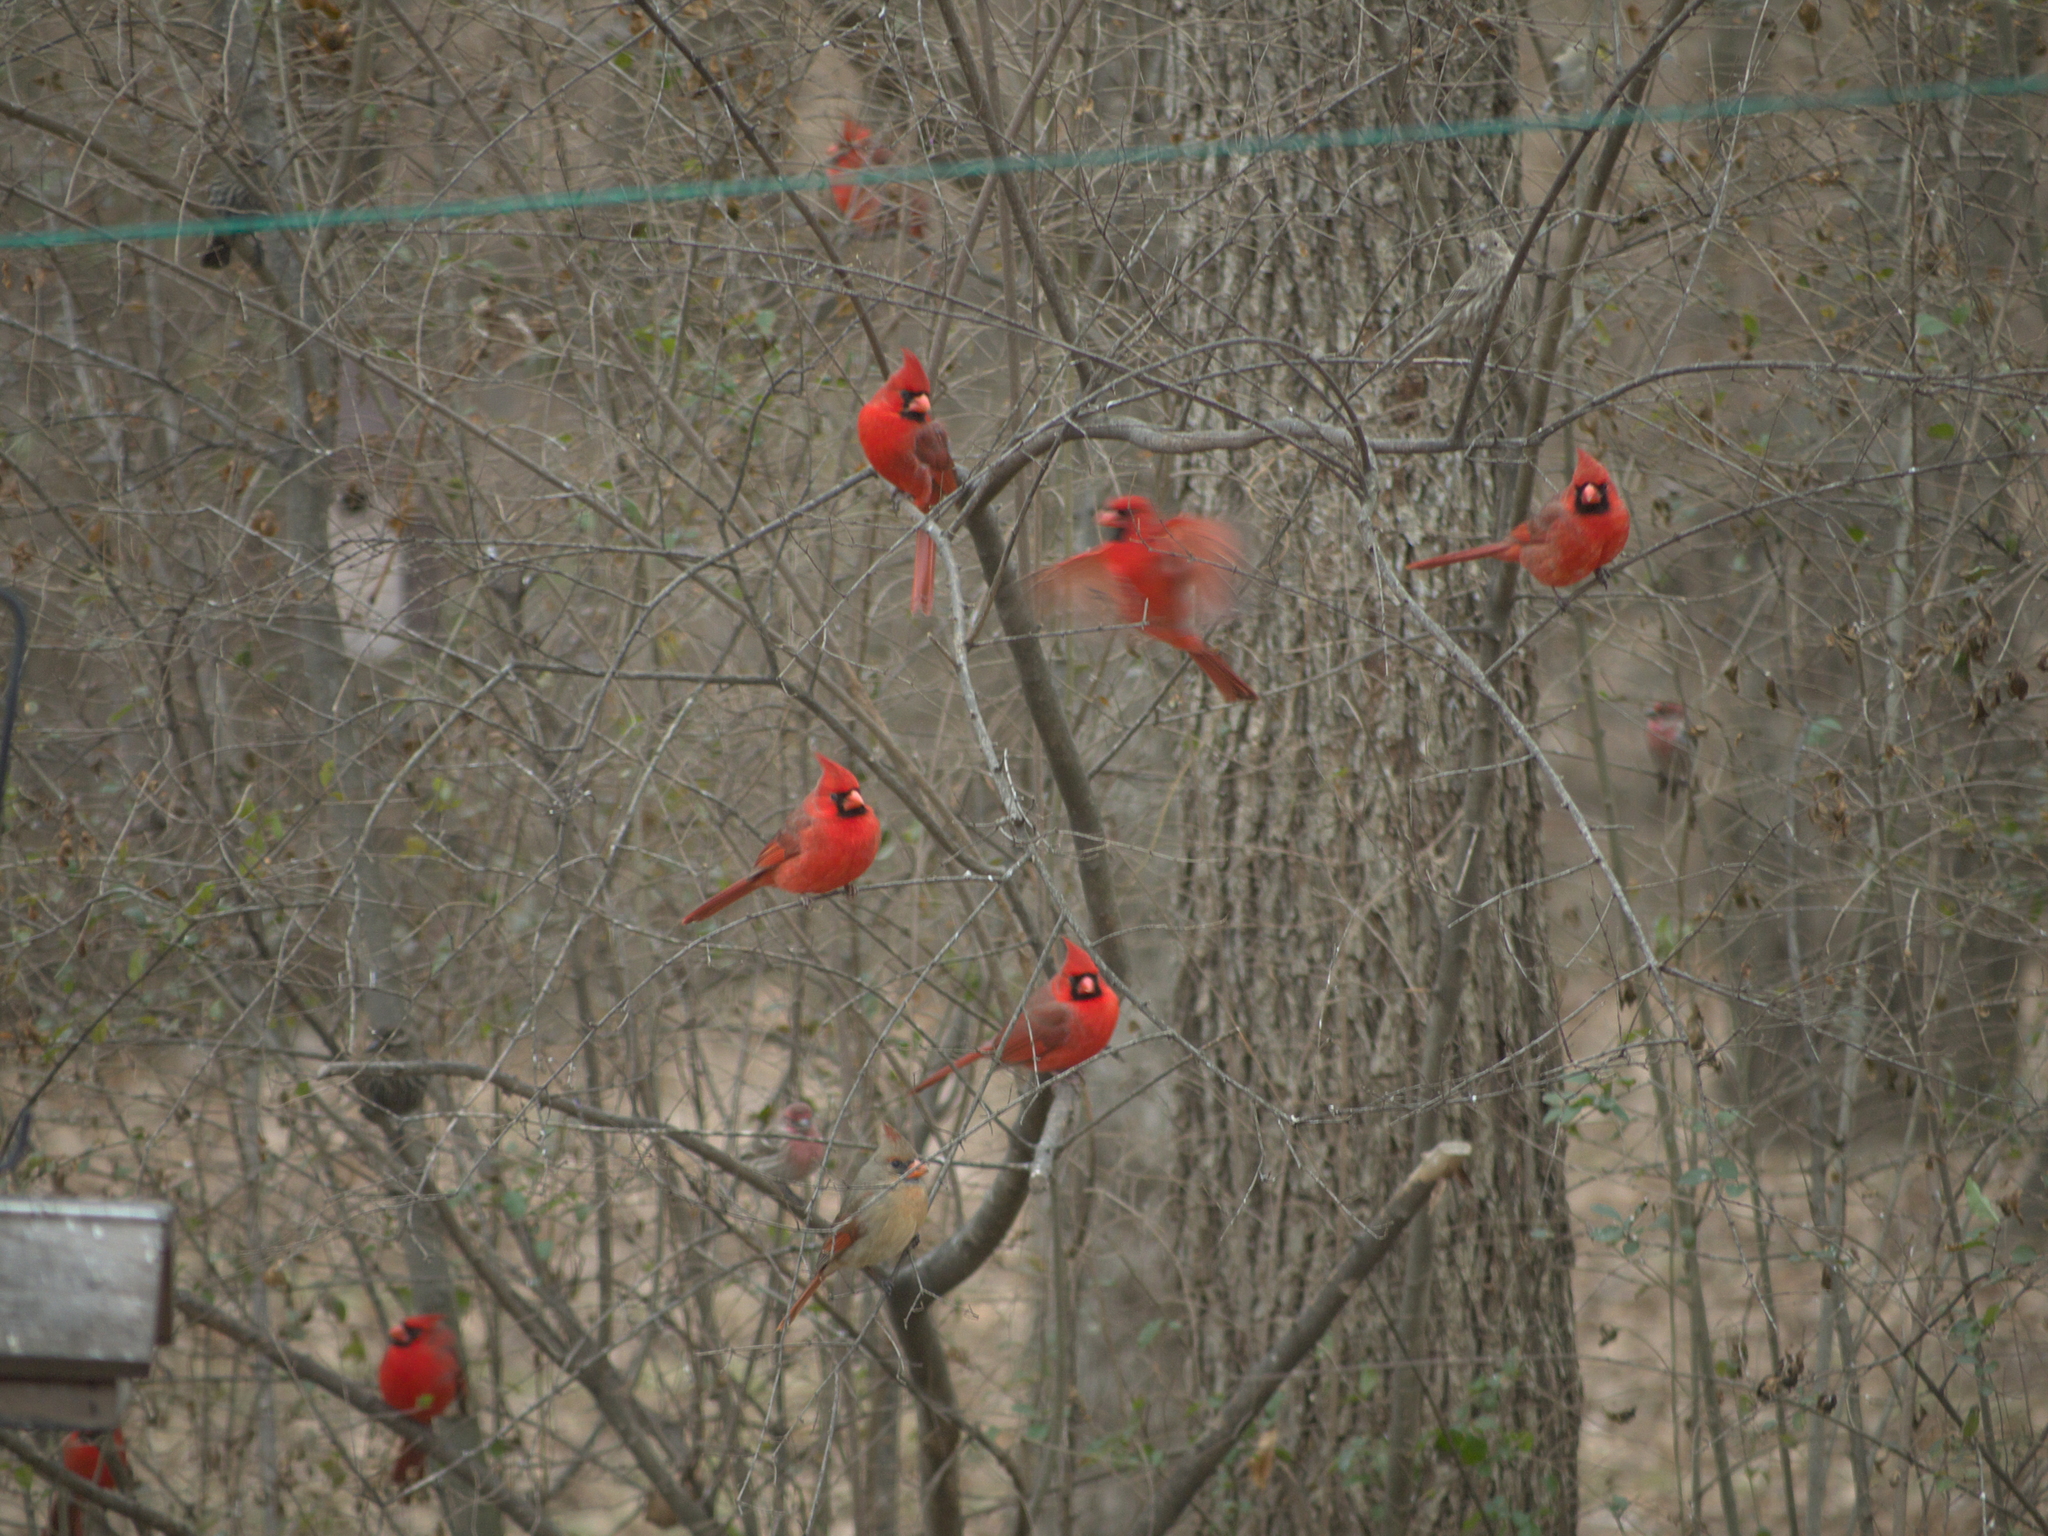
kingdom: Animalia
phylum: Chordata
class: Aves
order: Passeriformes
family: Cardinalidae
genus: Cardinalis
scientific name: Cardinalis cardinalis
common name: Northern cardinal
